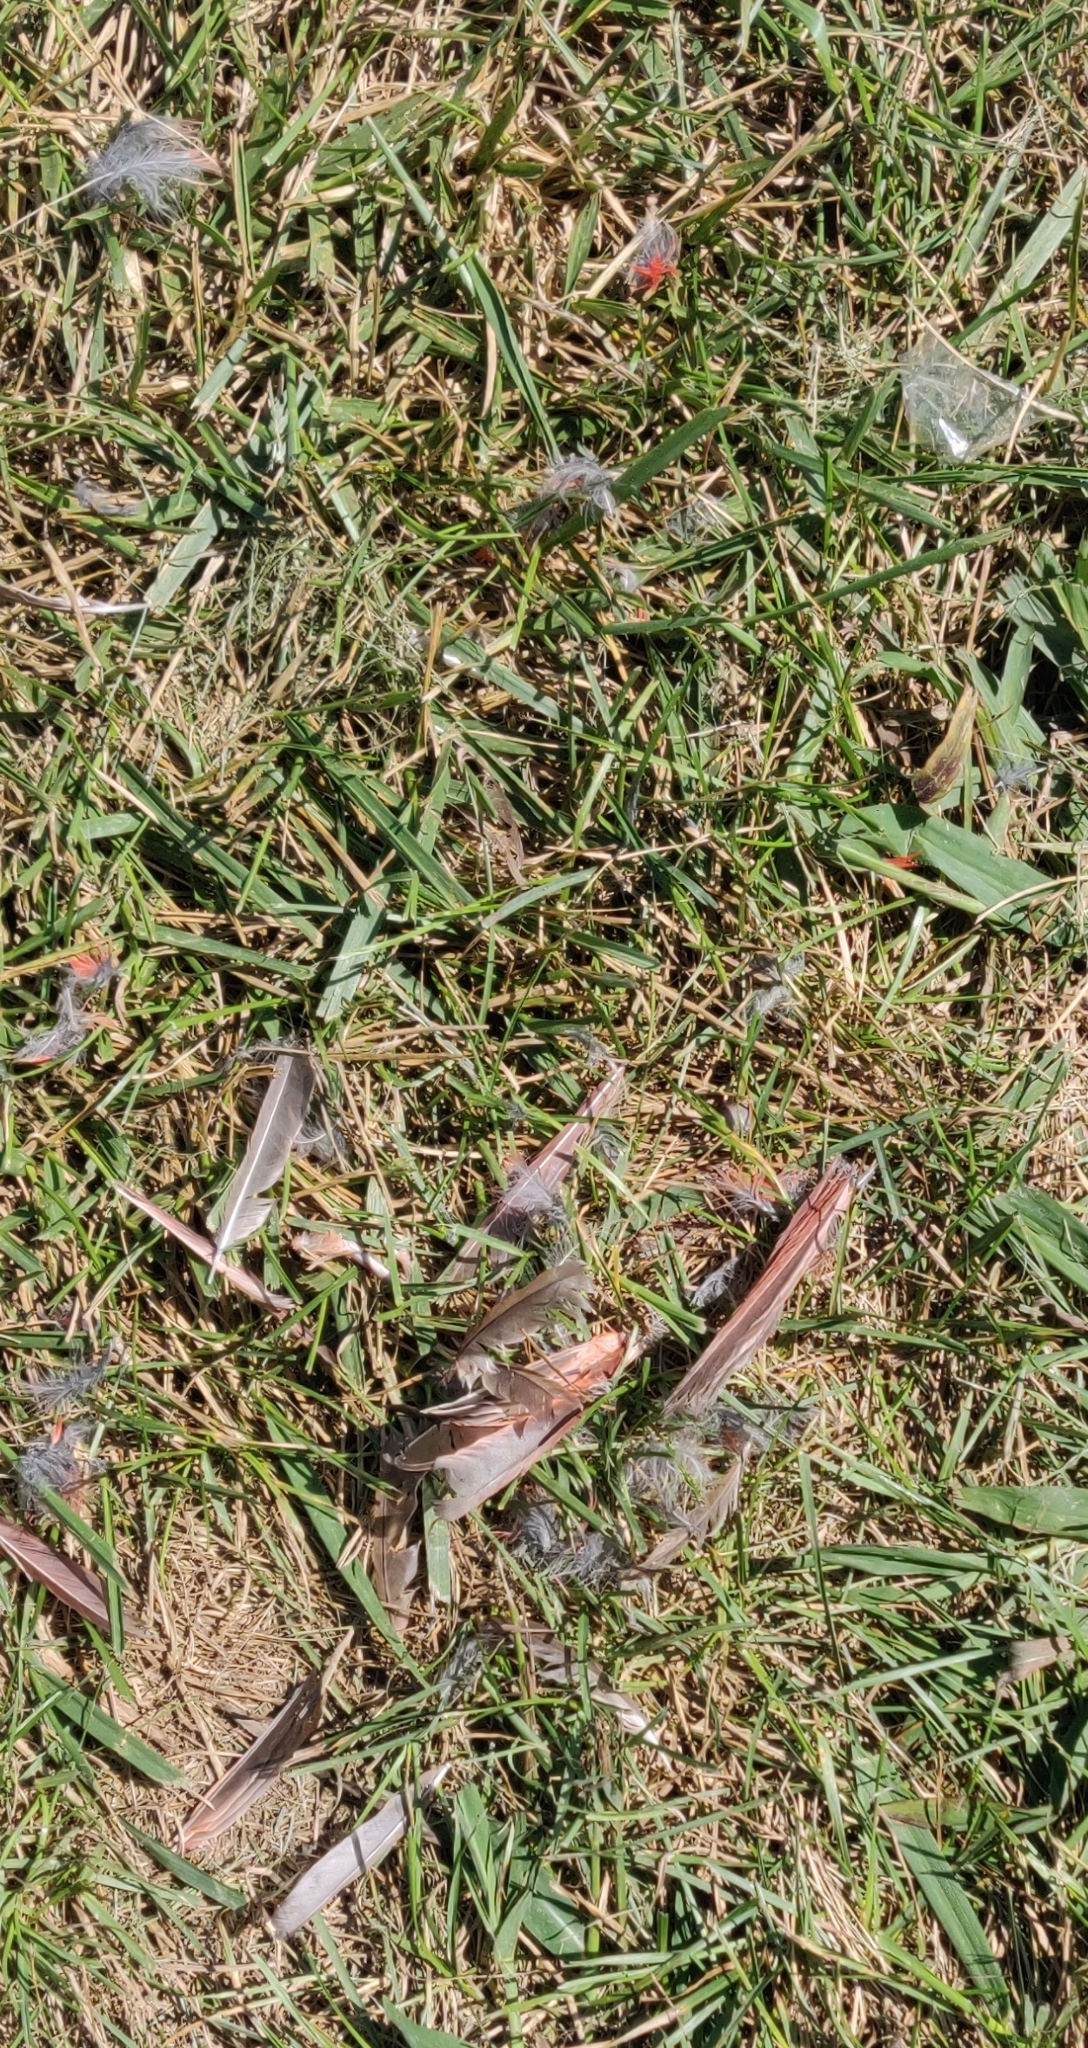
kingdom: Animalia
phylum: Chordata
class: Aves
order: Passeriformes
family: Cardinalidae
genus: Cardinalis
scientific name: Cardinalis cardinalis
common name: Northern cardinal
